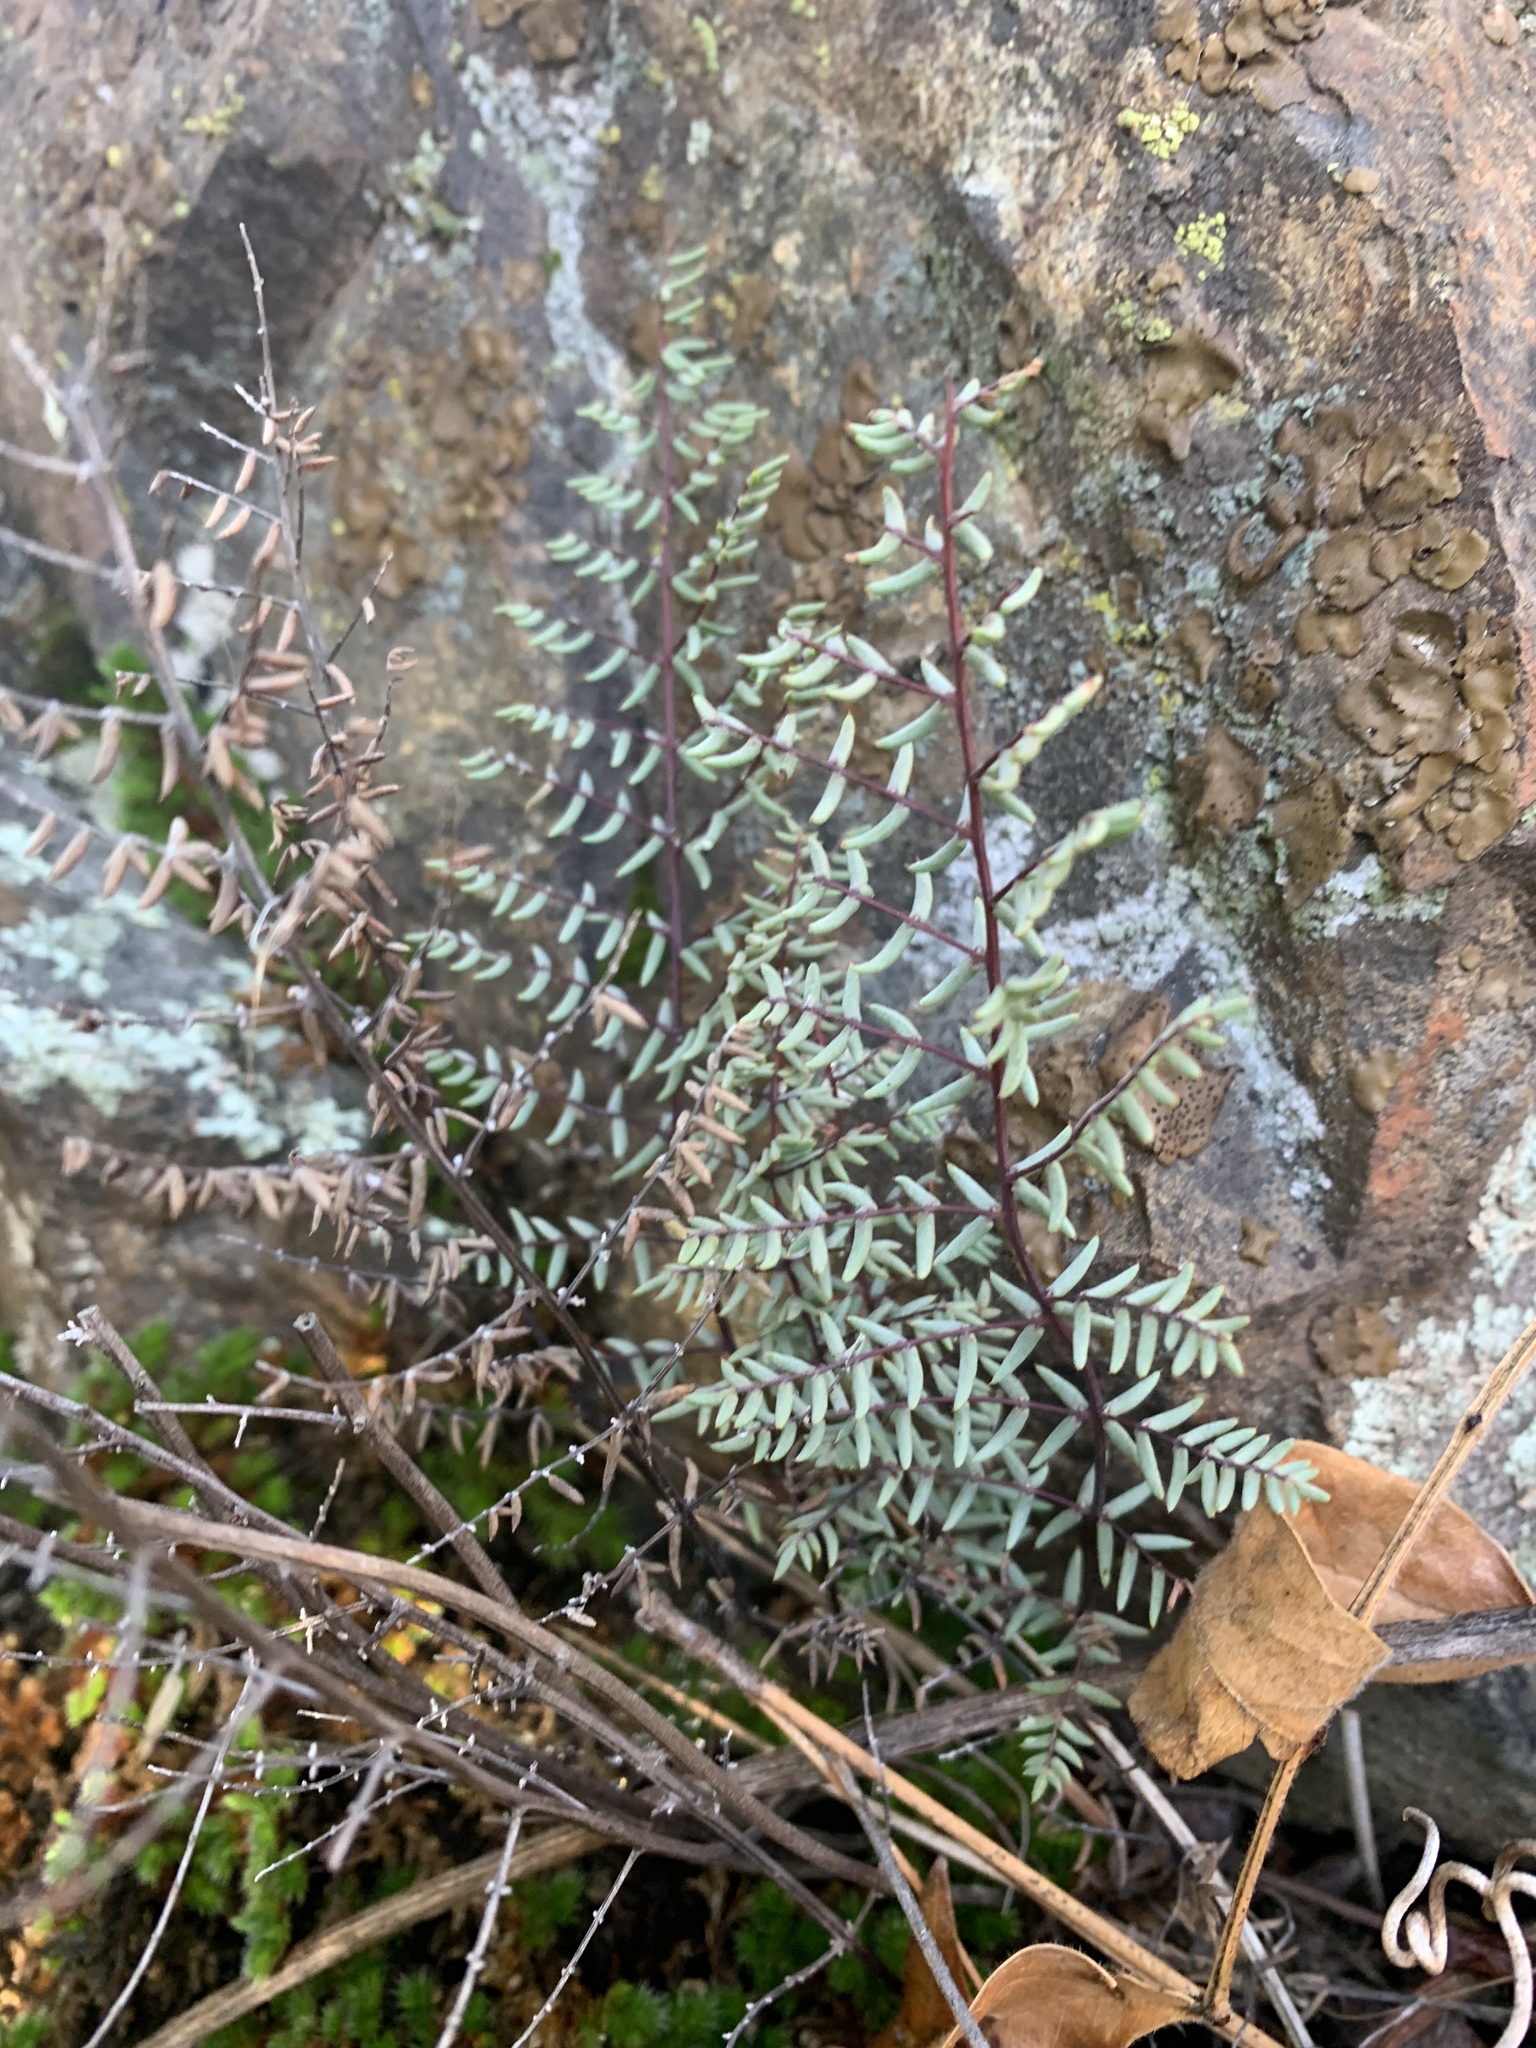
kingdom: Plantae
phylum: Tracheophyta
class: Polypodiopsida
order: Polypodiales
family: Pteridaceae
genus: Pellaea
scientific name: Pellaea mucronata
